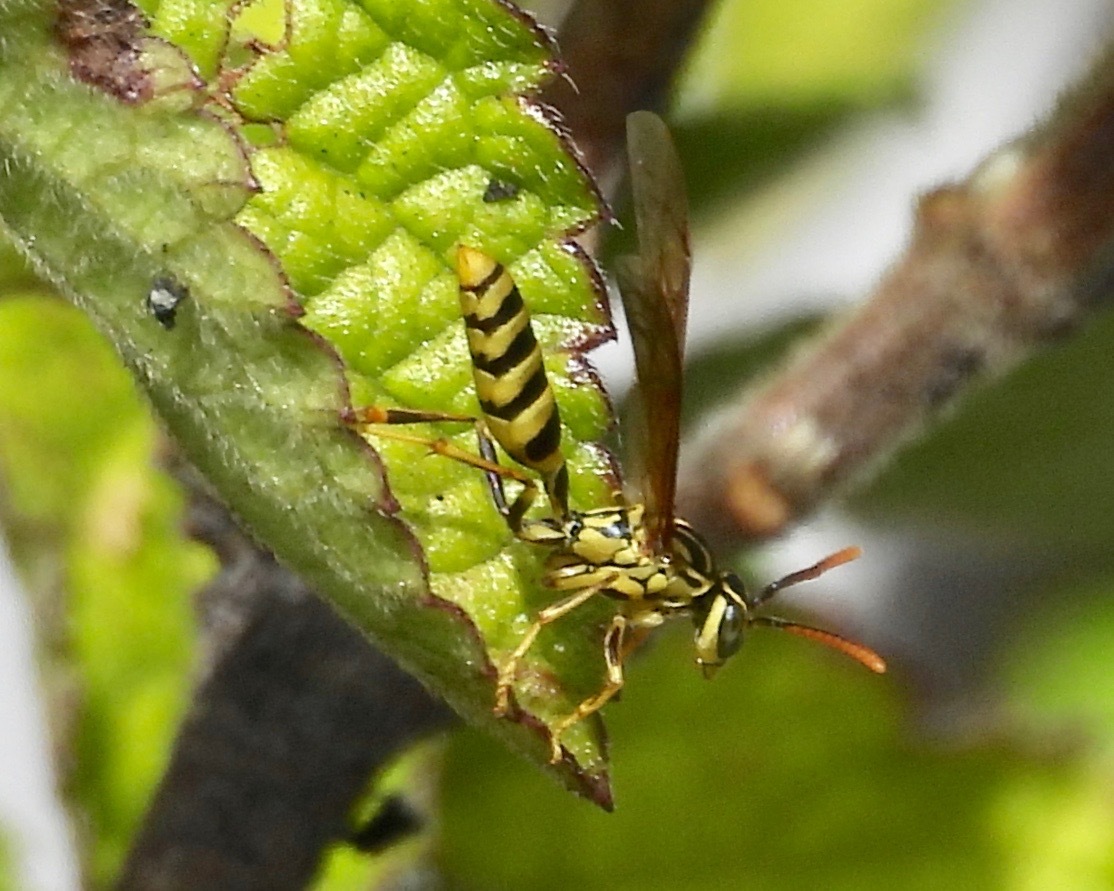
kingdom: Animalia
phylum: Arthropoda
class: Insecta
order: Hymenoptera
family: Vespidae
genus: Agelaia
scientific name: Agelaia areata
